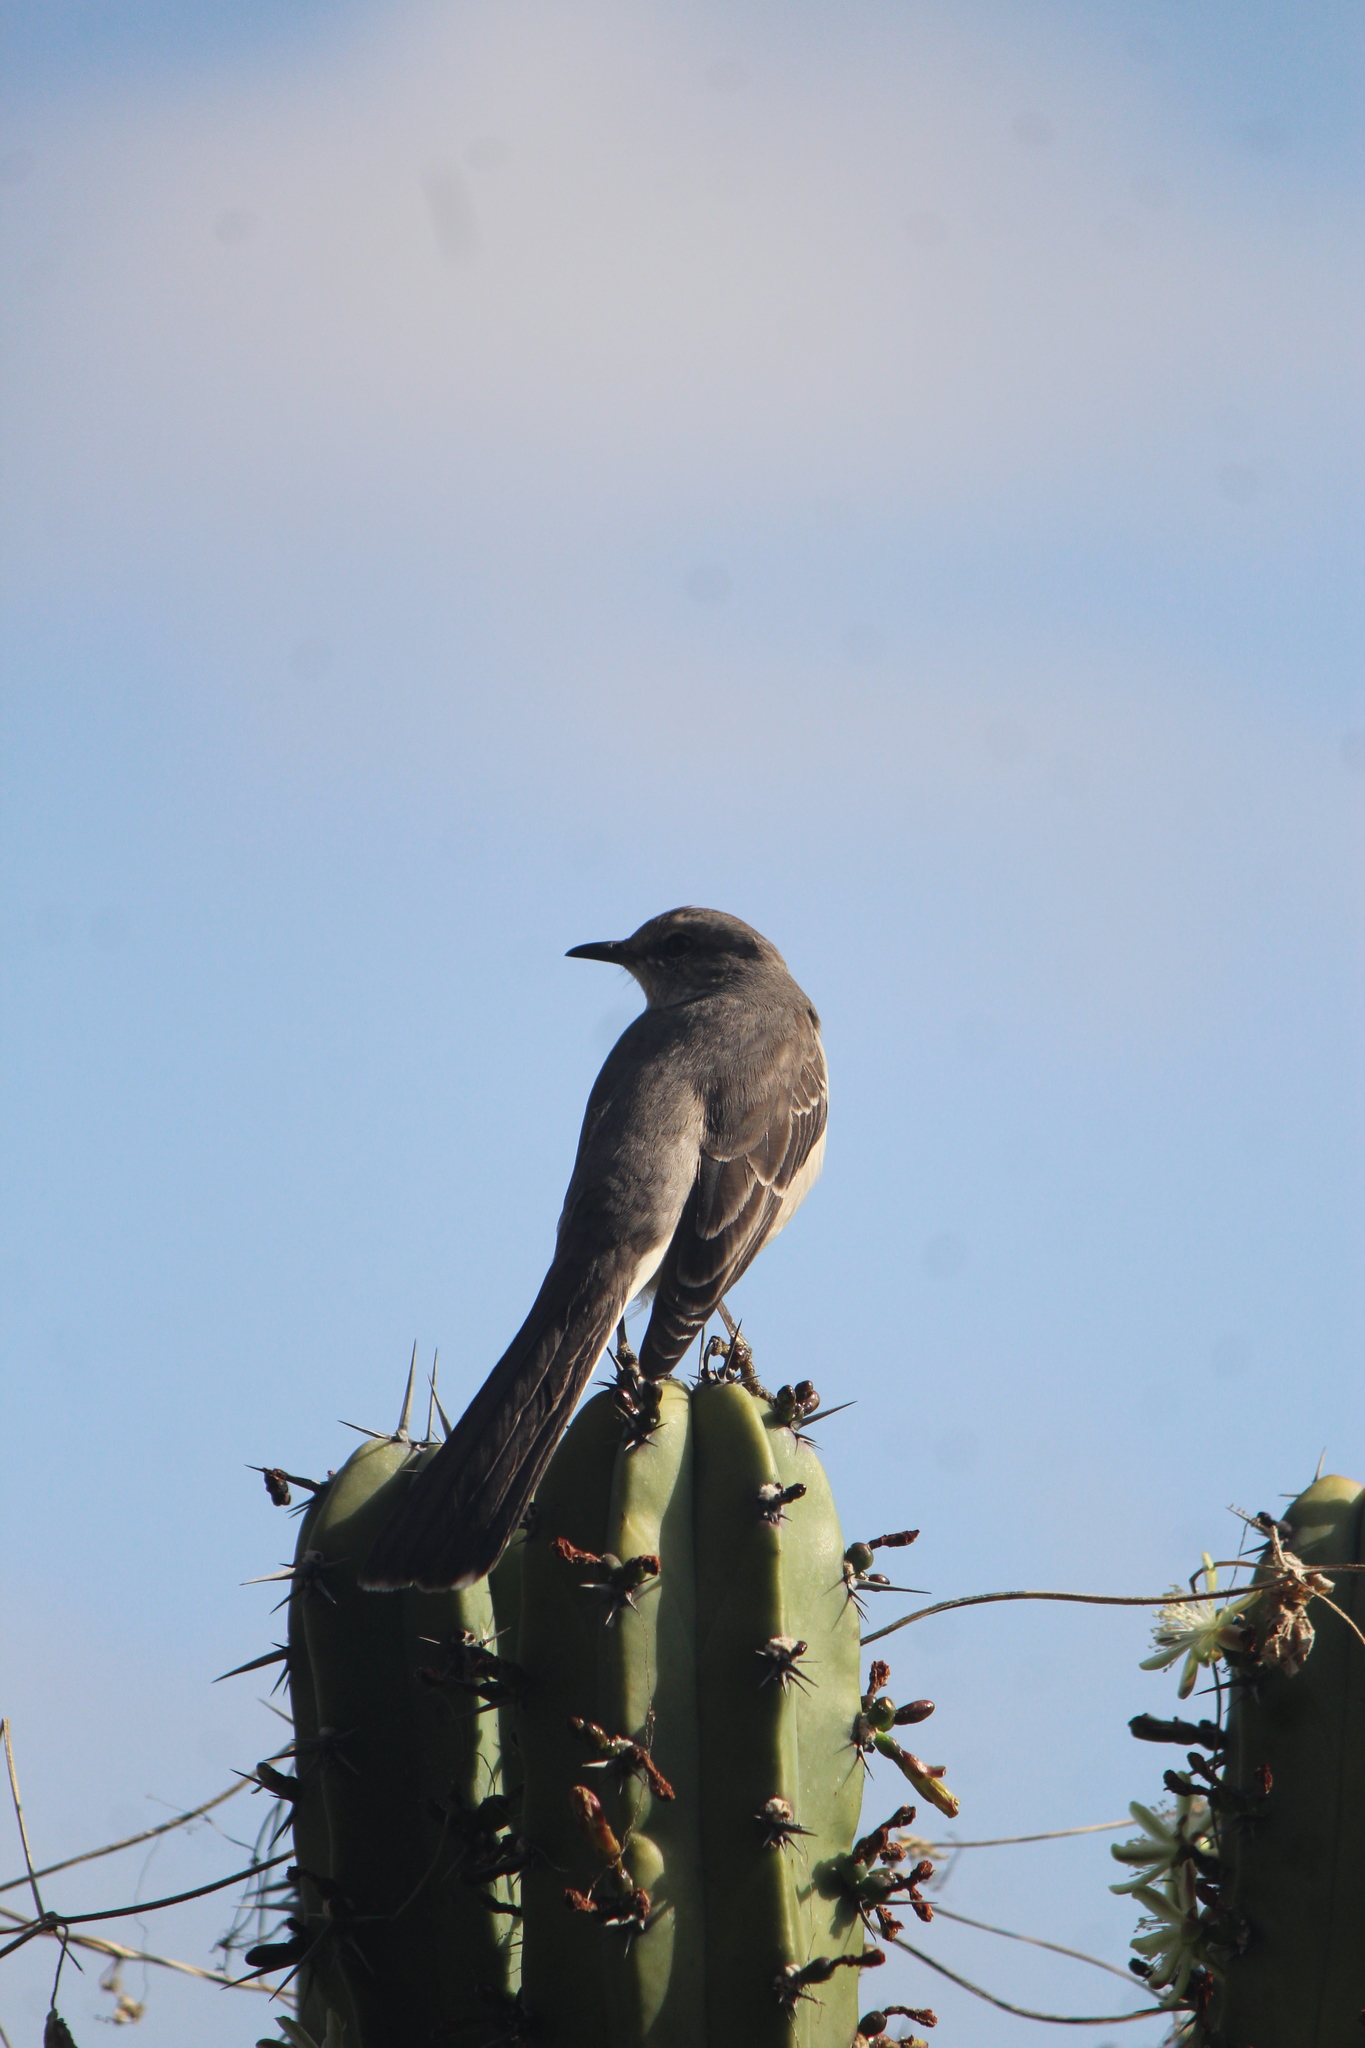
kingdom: Animalia
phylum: Chordata
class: Aves
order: Passeriformes
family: Mimidae
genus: Mimus
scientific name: Mimus polyglottos
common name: Northern mockingbird
